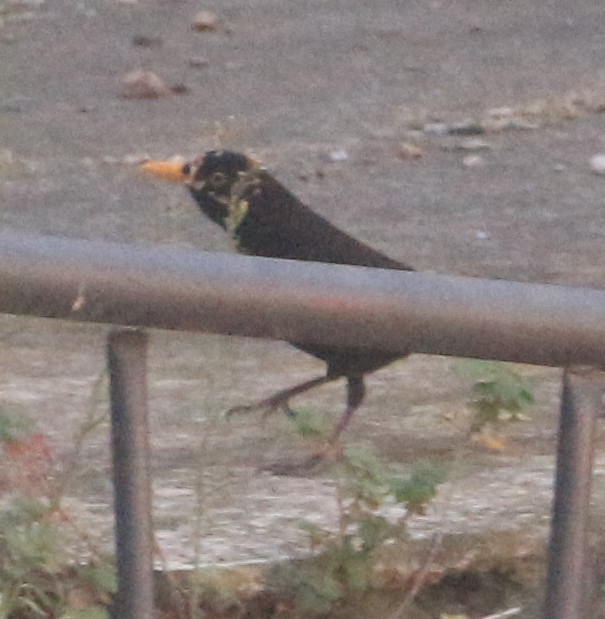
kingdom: Animalia
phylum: Chordata
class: Aves
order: Passeriformes
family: Turdidae
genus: Turdus
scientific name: Turdus merula
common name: Common blackbird
